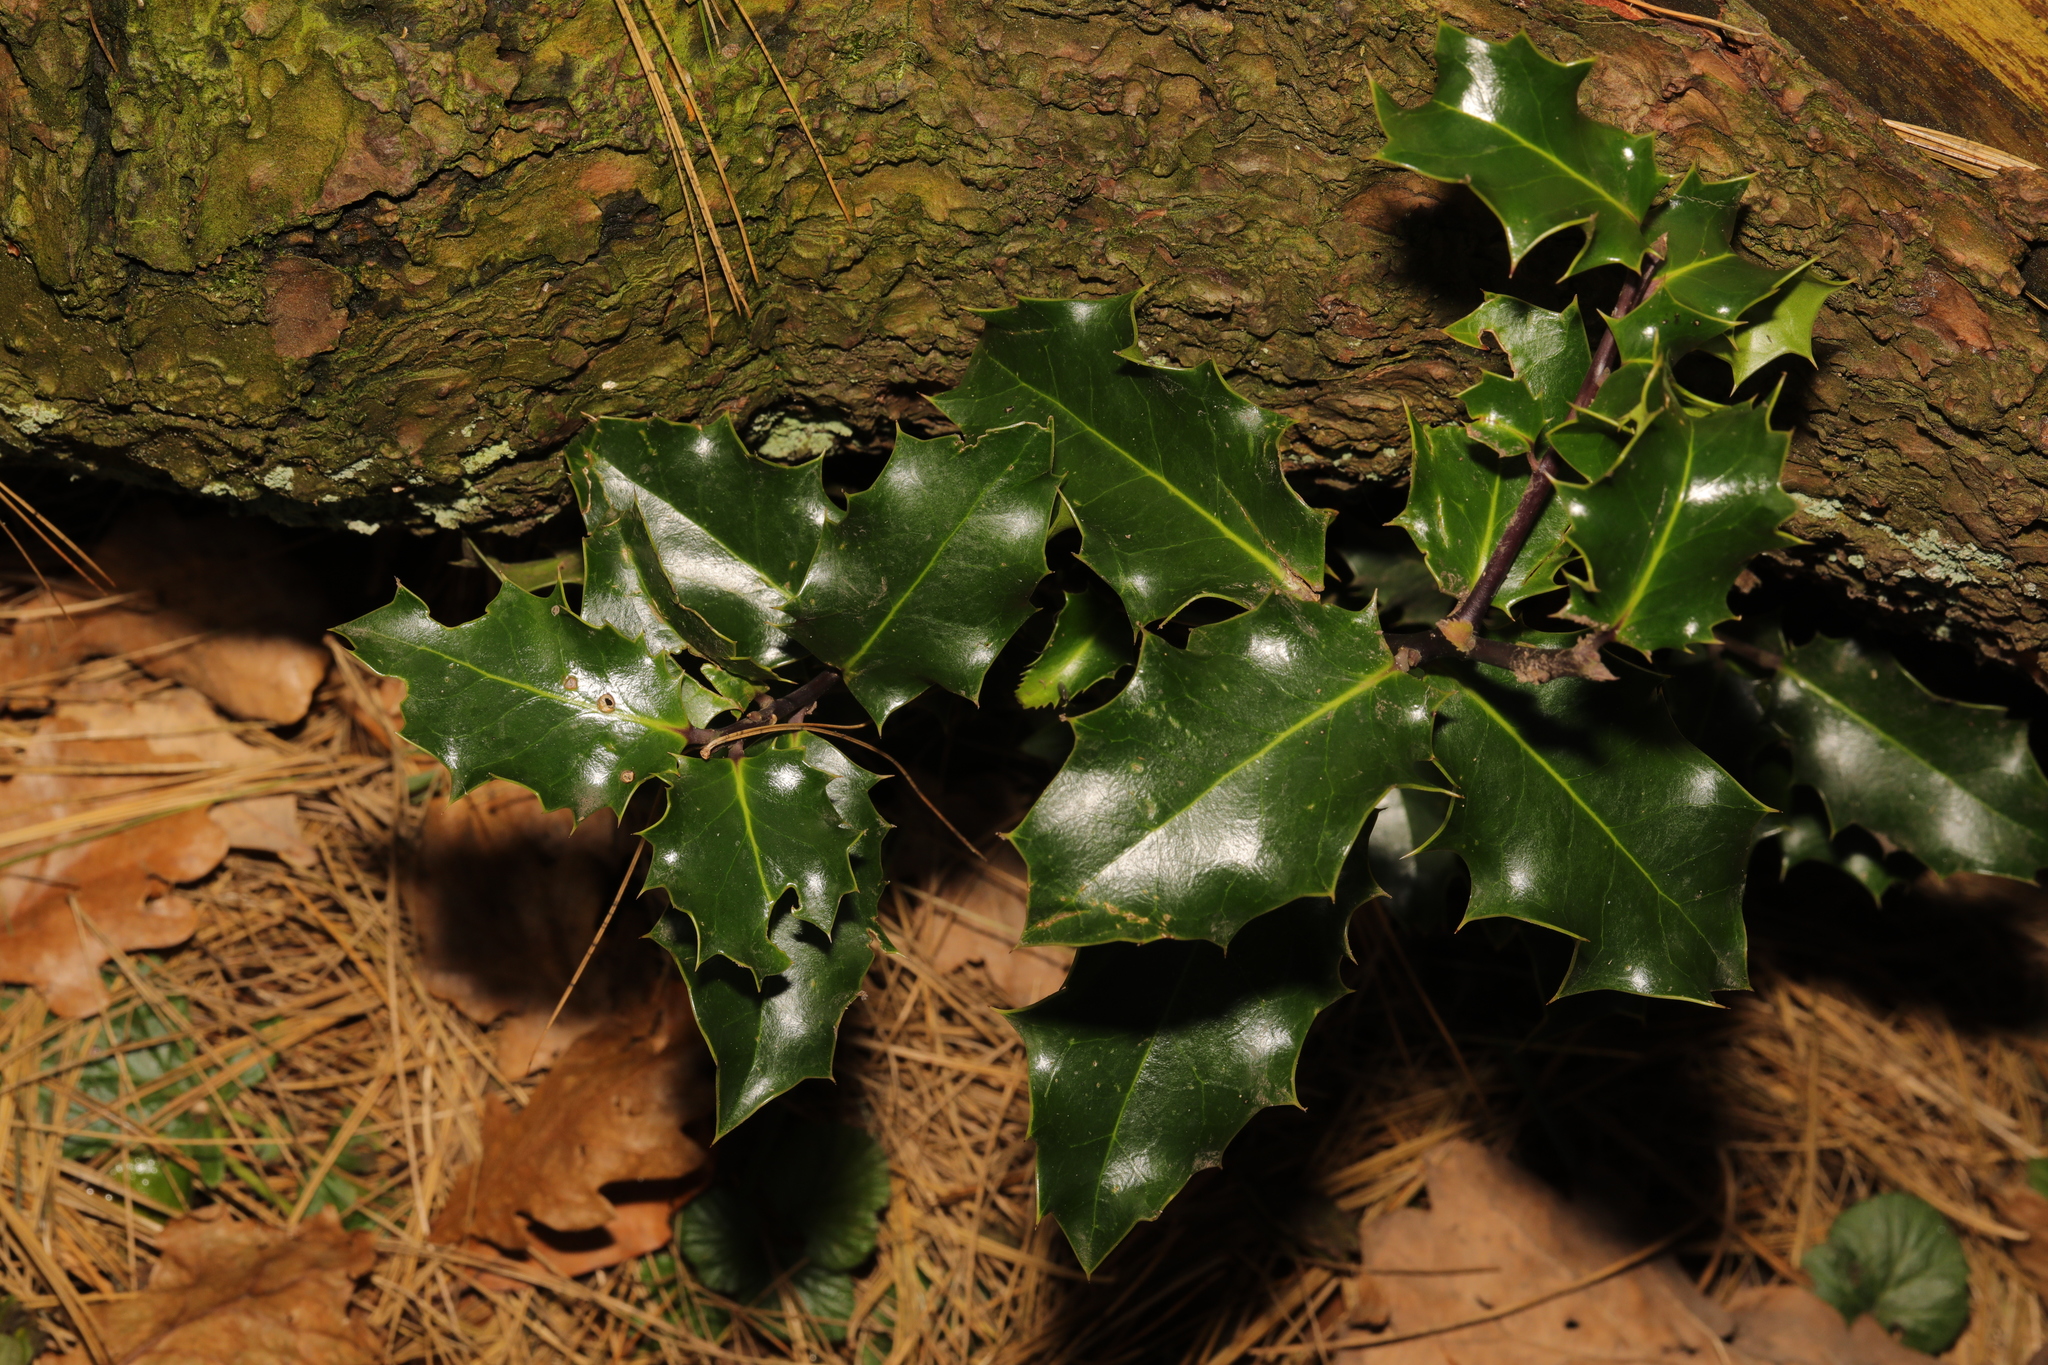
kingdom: Plantae
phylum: Tracheophyta
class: Magnoliopsida
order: Aquifoliales
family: Aquifoliaceae
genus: Ilex
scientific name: Ilex aquifolium
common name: English holly
